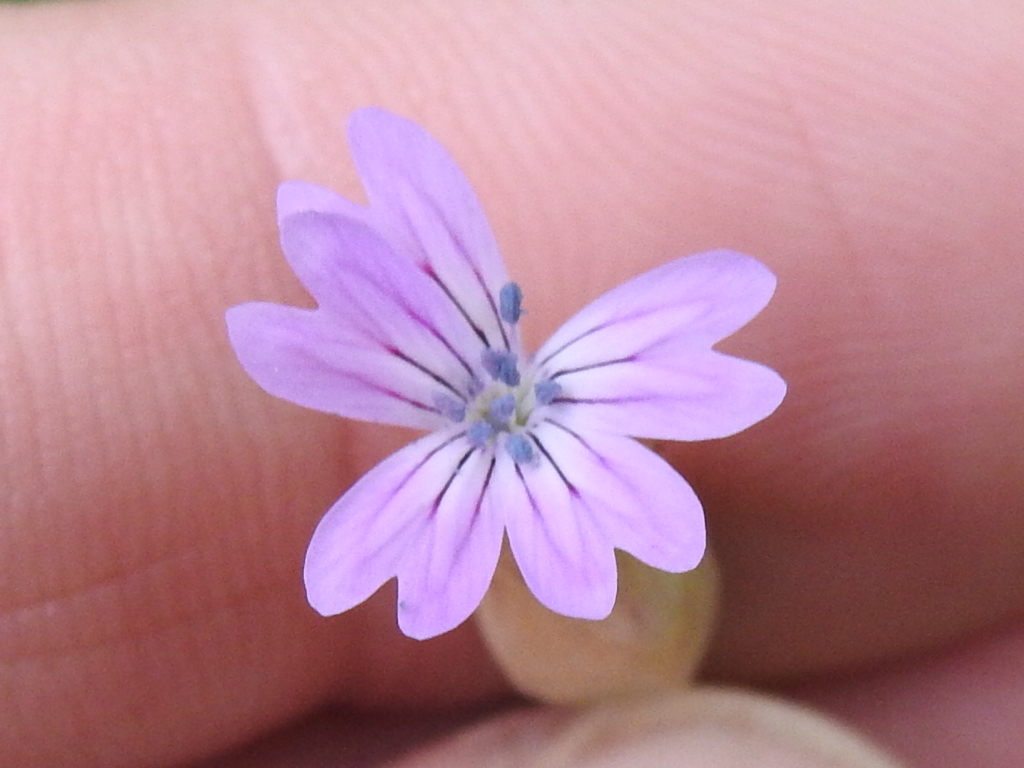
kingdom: Plantae
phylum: Tracheophyta
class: Magnoliopsida
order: Caryophyllales
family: Caryophyllaceae
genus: Petrorhagia
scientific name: Petrorhagia dubia
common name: Hairypink
